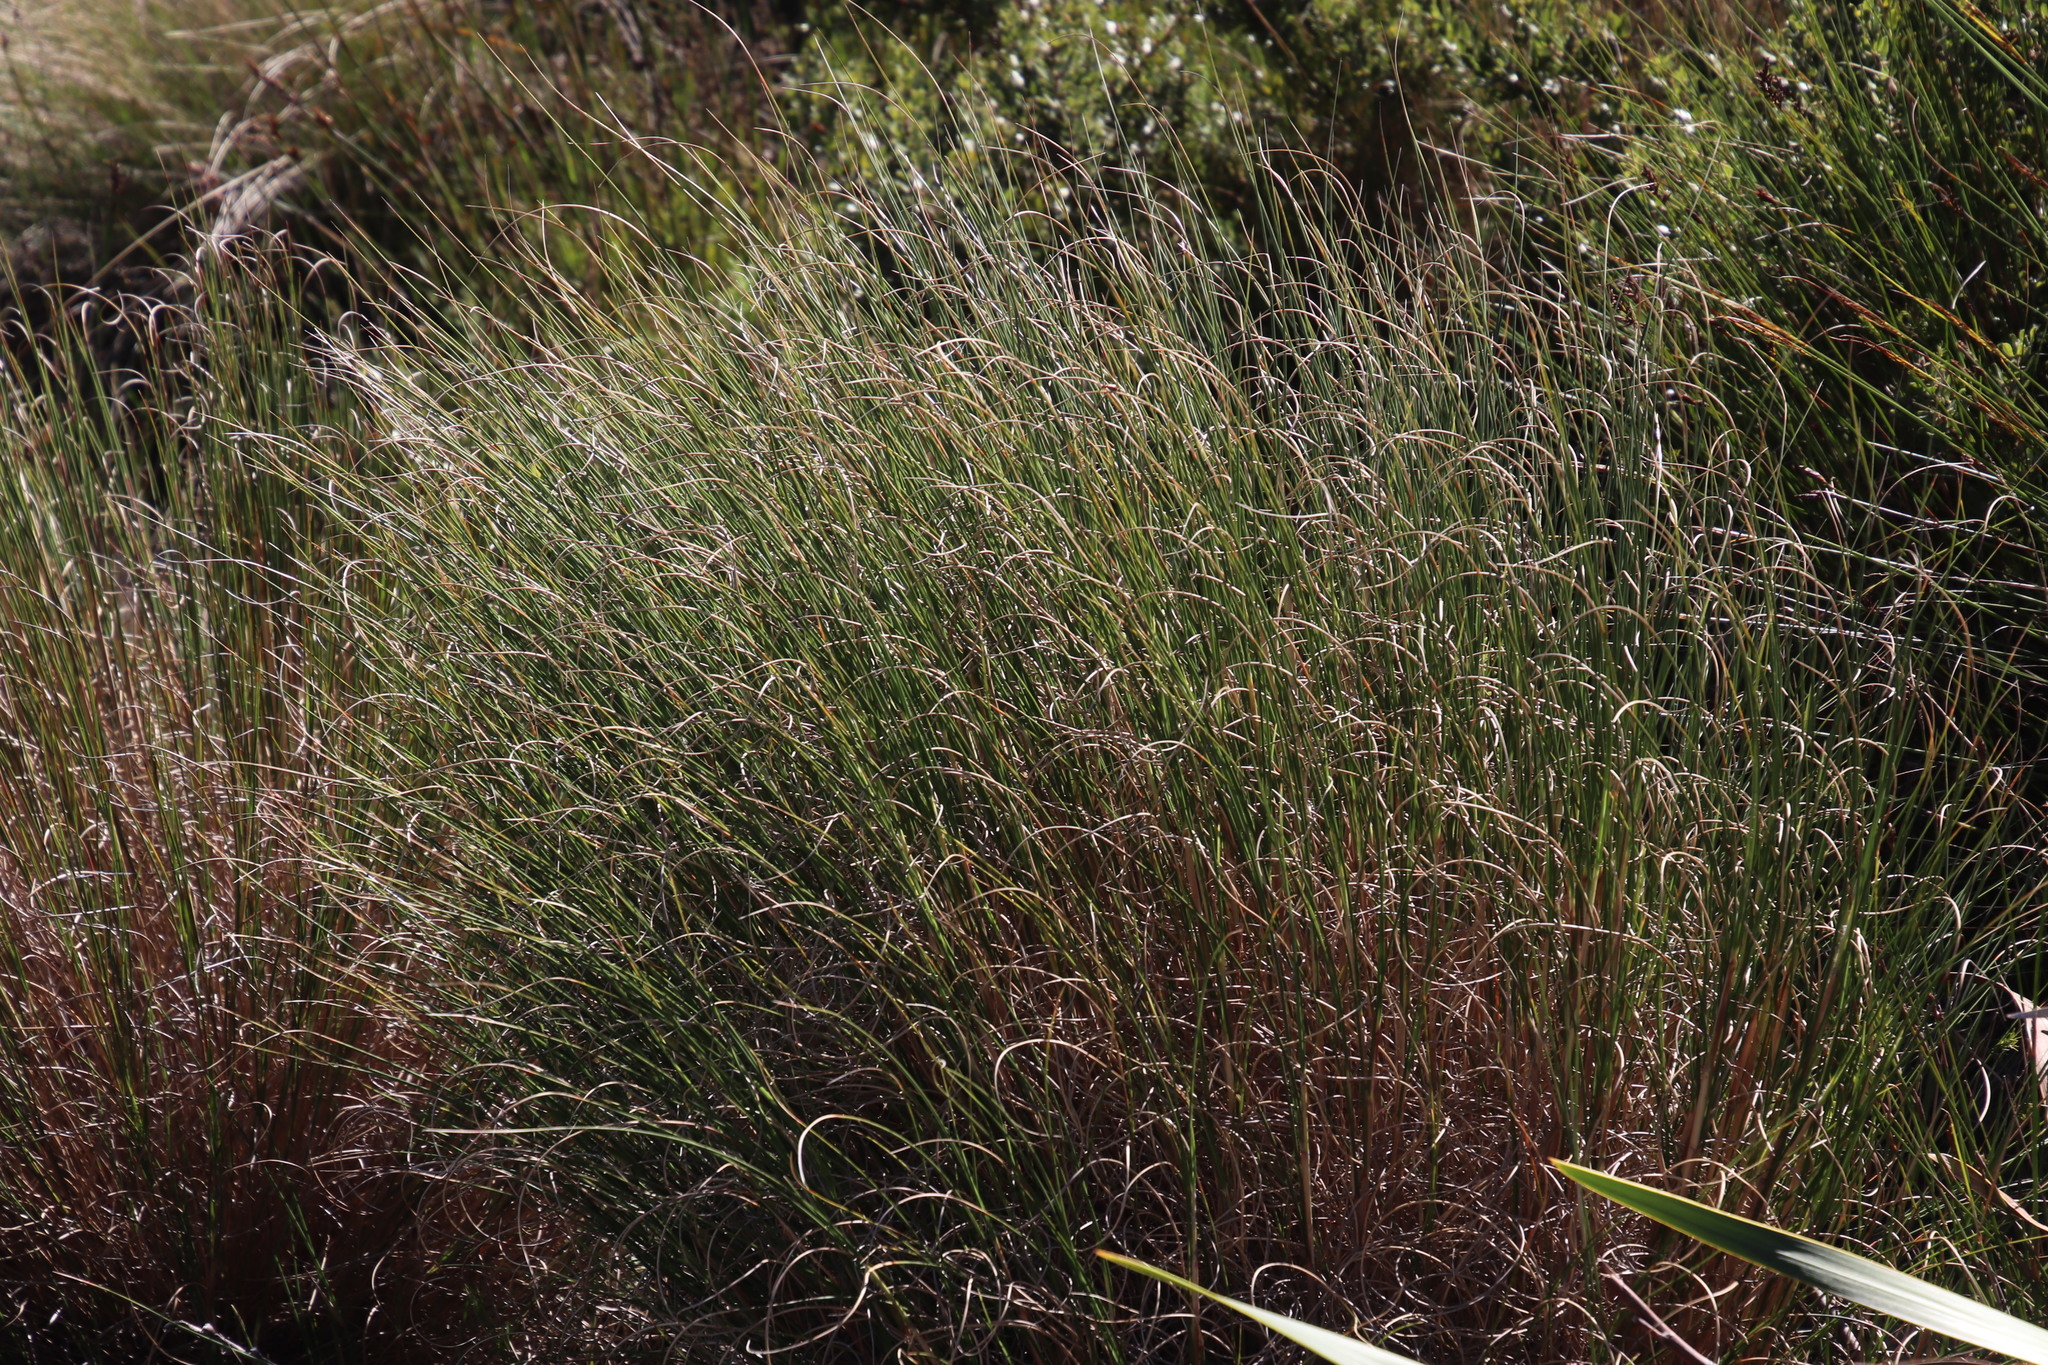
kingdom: Plantae
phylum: Tracheophyta
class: Liliopsida
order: Poales
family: Poaceae
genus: Pentameris
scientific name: Pentameris macrocalycina
